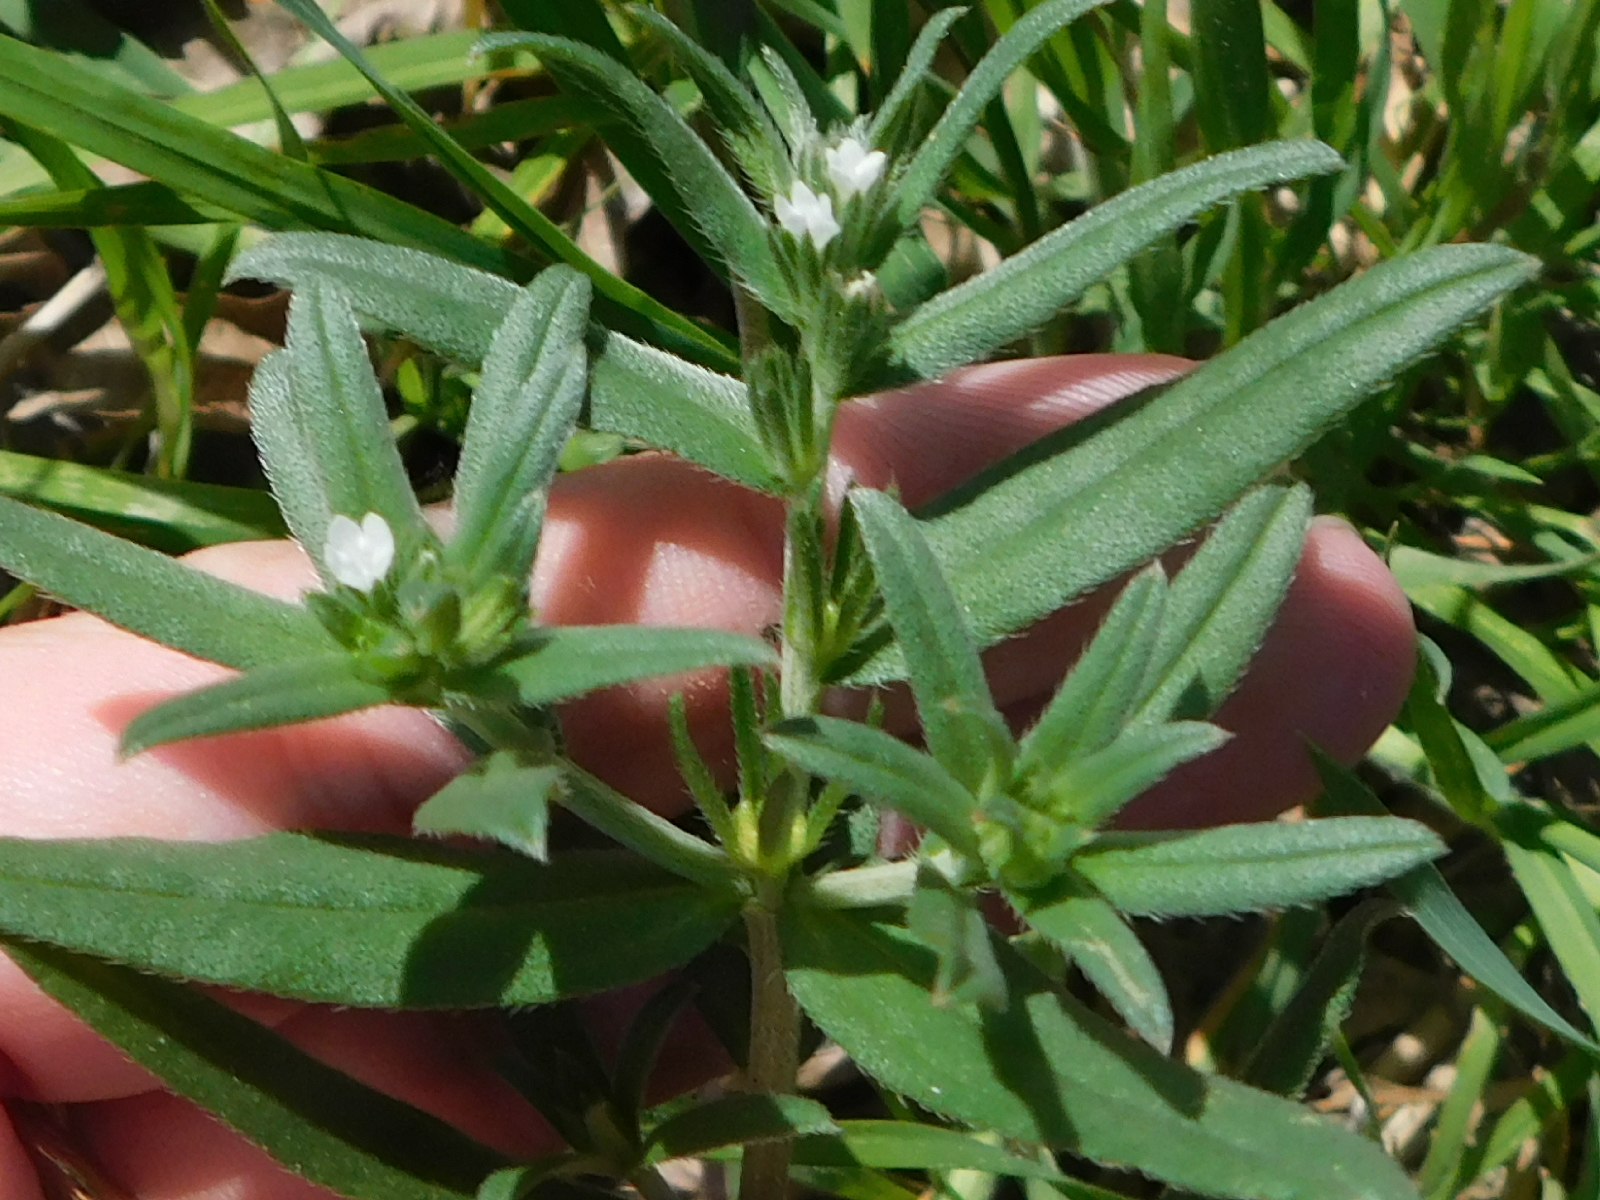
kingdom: Plantae
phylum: Tracheophyta
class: Magnoliopsida
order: Boraginales
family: Boraginaceae
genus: Buglossoides
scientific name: Buglossoides arvensis
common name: Corn gromwell
